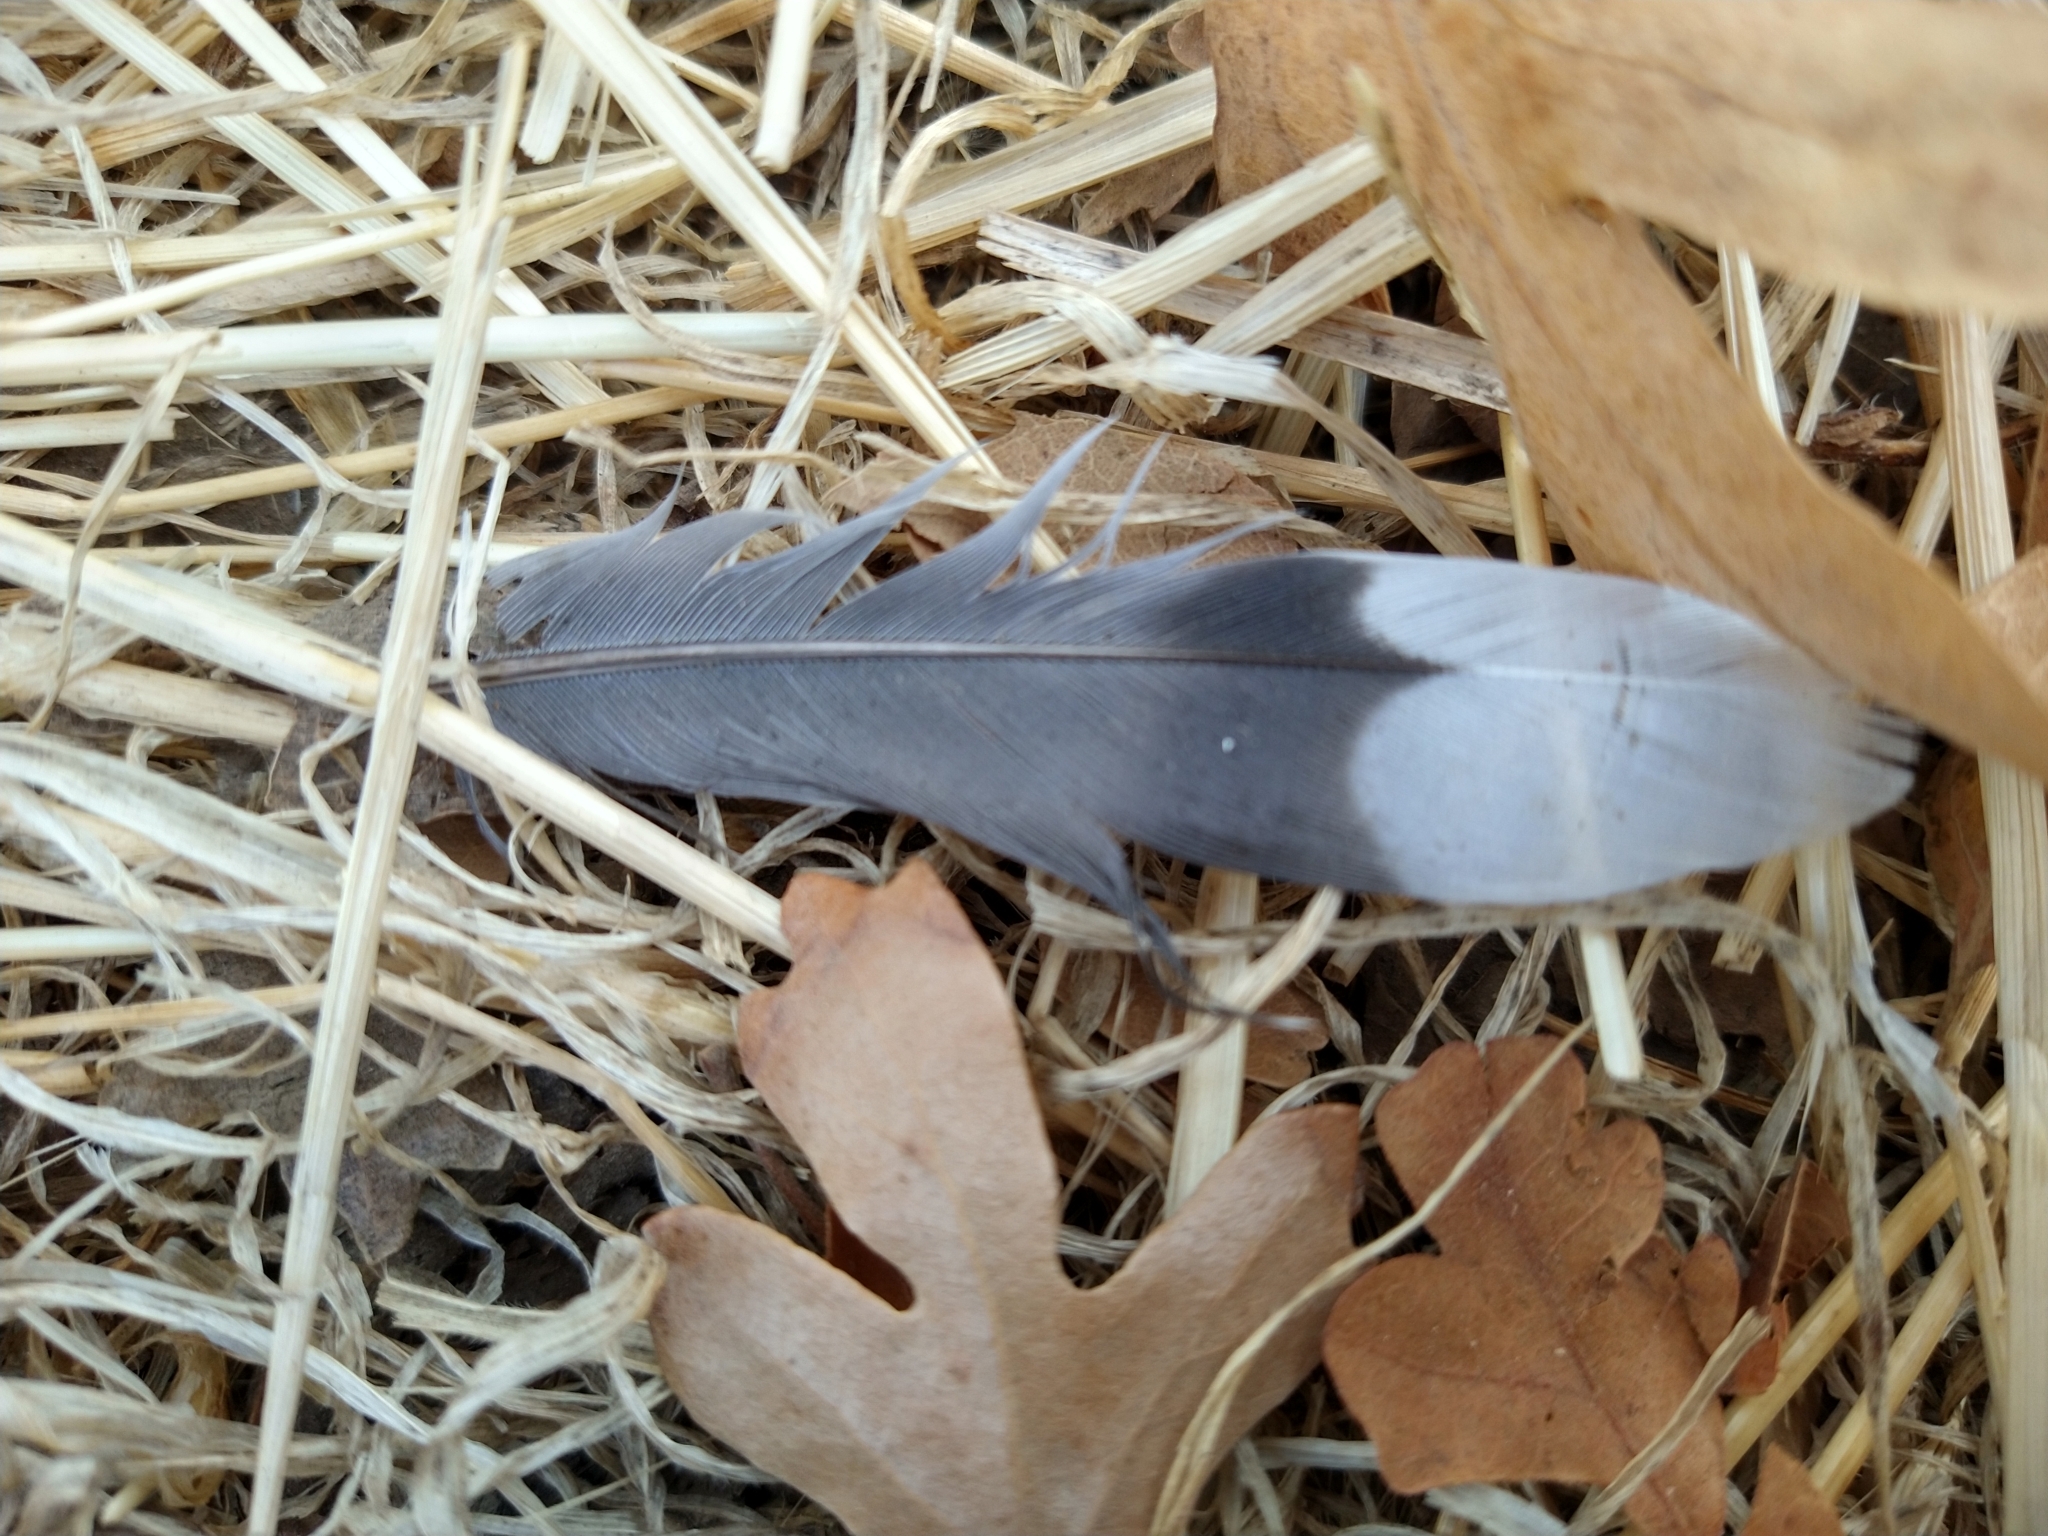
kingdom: Animalia
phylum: Chordata
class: Aves
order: Columbiformes
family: Columbidae
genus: Zenaida
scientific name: Zenaida macroura
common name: Mourning dove
